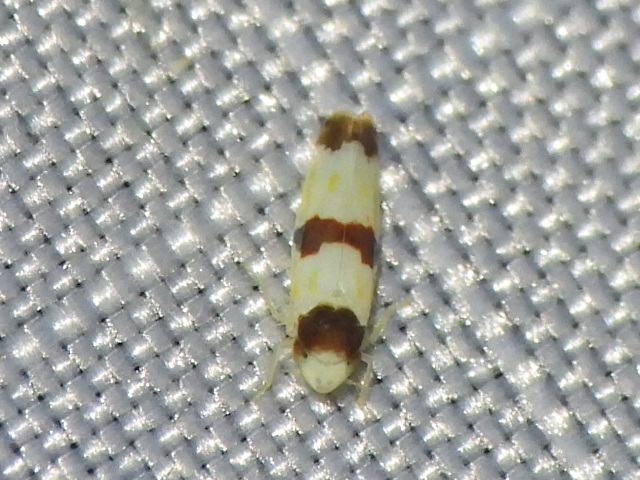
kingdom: Animalia
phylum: Arthropoda
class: Insecta
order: Hemiptera
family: Cicadellidae
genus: Erythroneura
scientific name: Erythroneura tricincta
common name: The threebanded grape leafhopper
